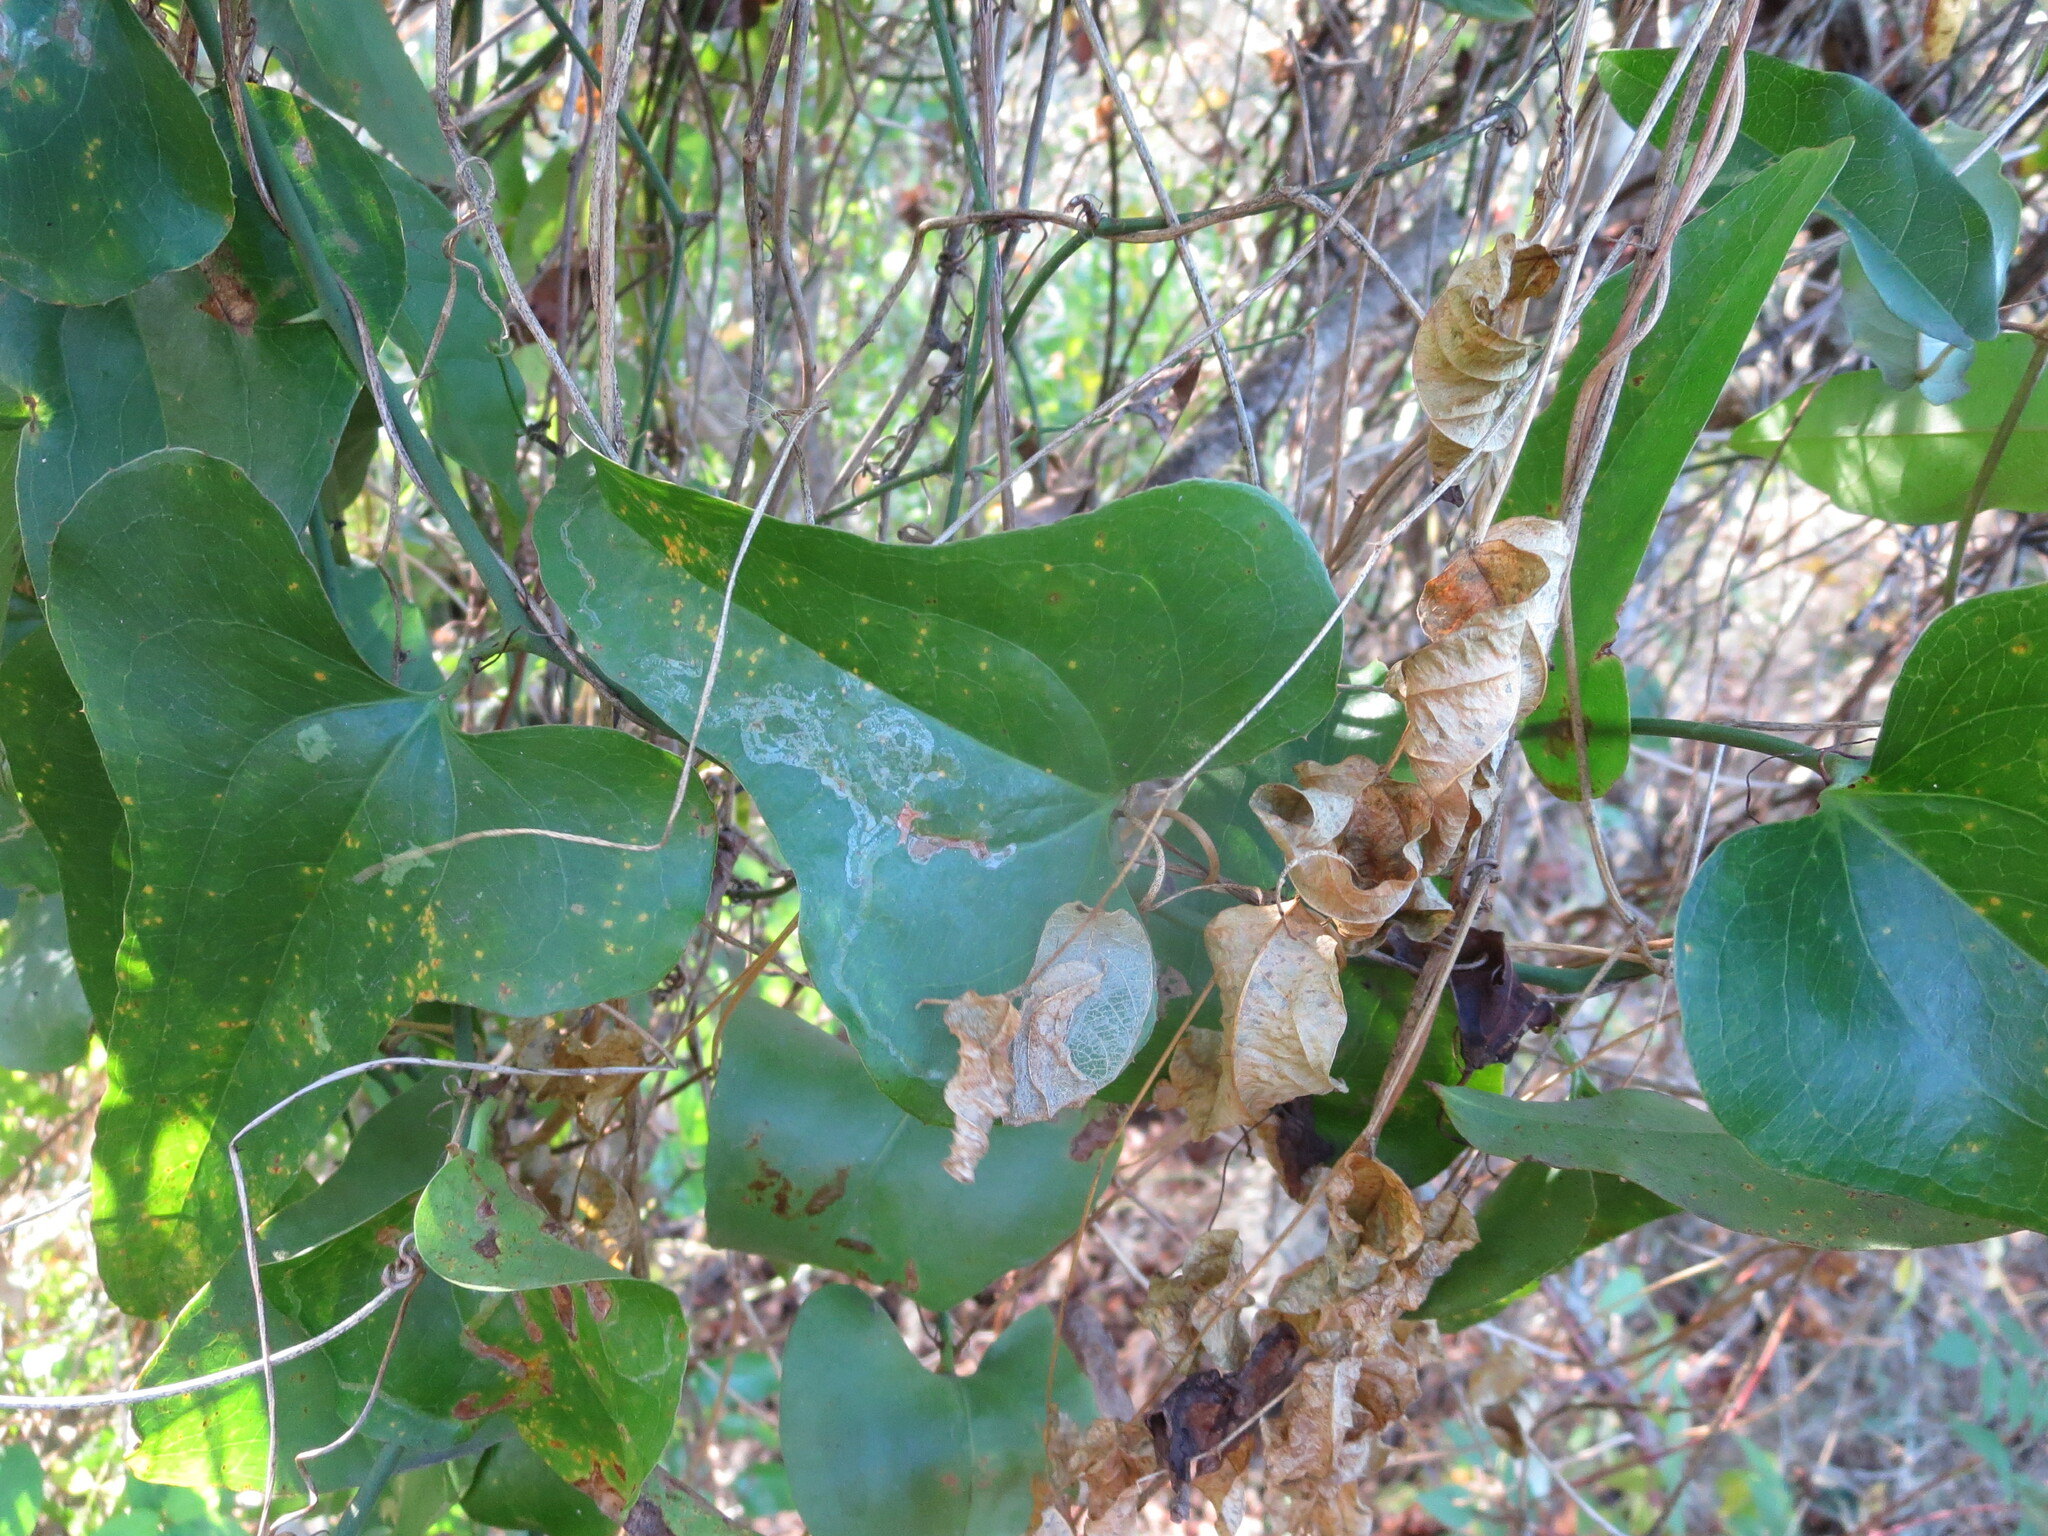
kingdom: Plantae
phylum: Tracheophyta
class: Liliopsida
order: Liliales
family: Smilacaceae
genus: Smilax
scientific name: Smilax bona-nox
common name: Catbrier
